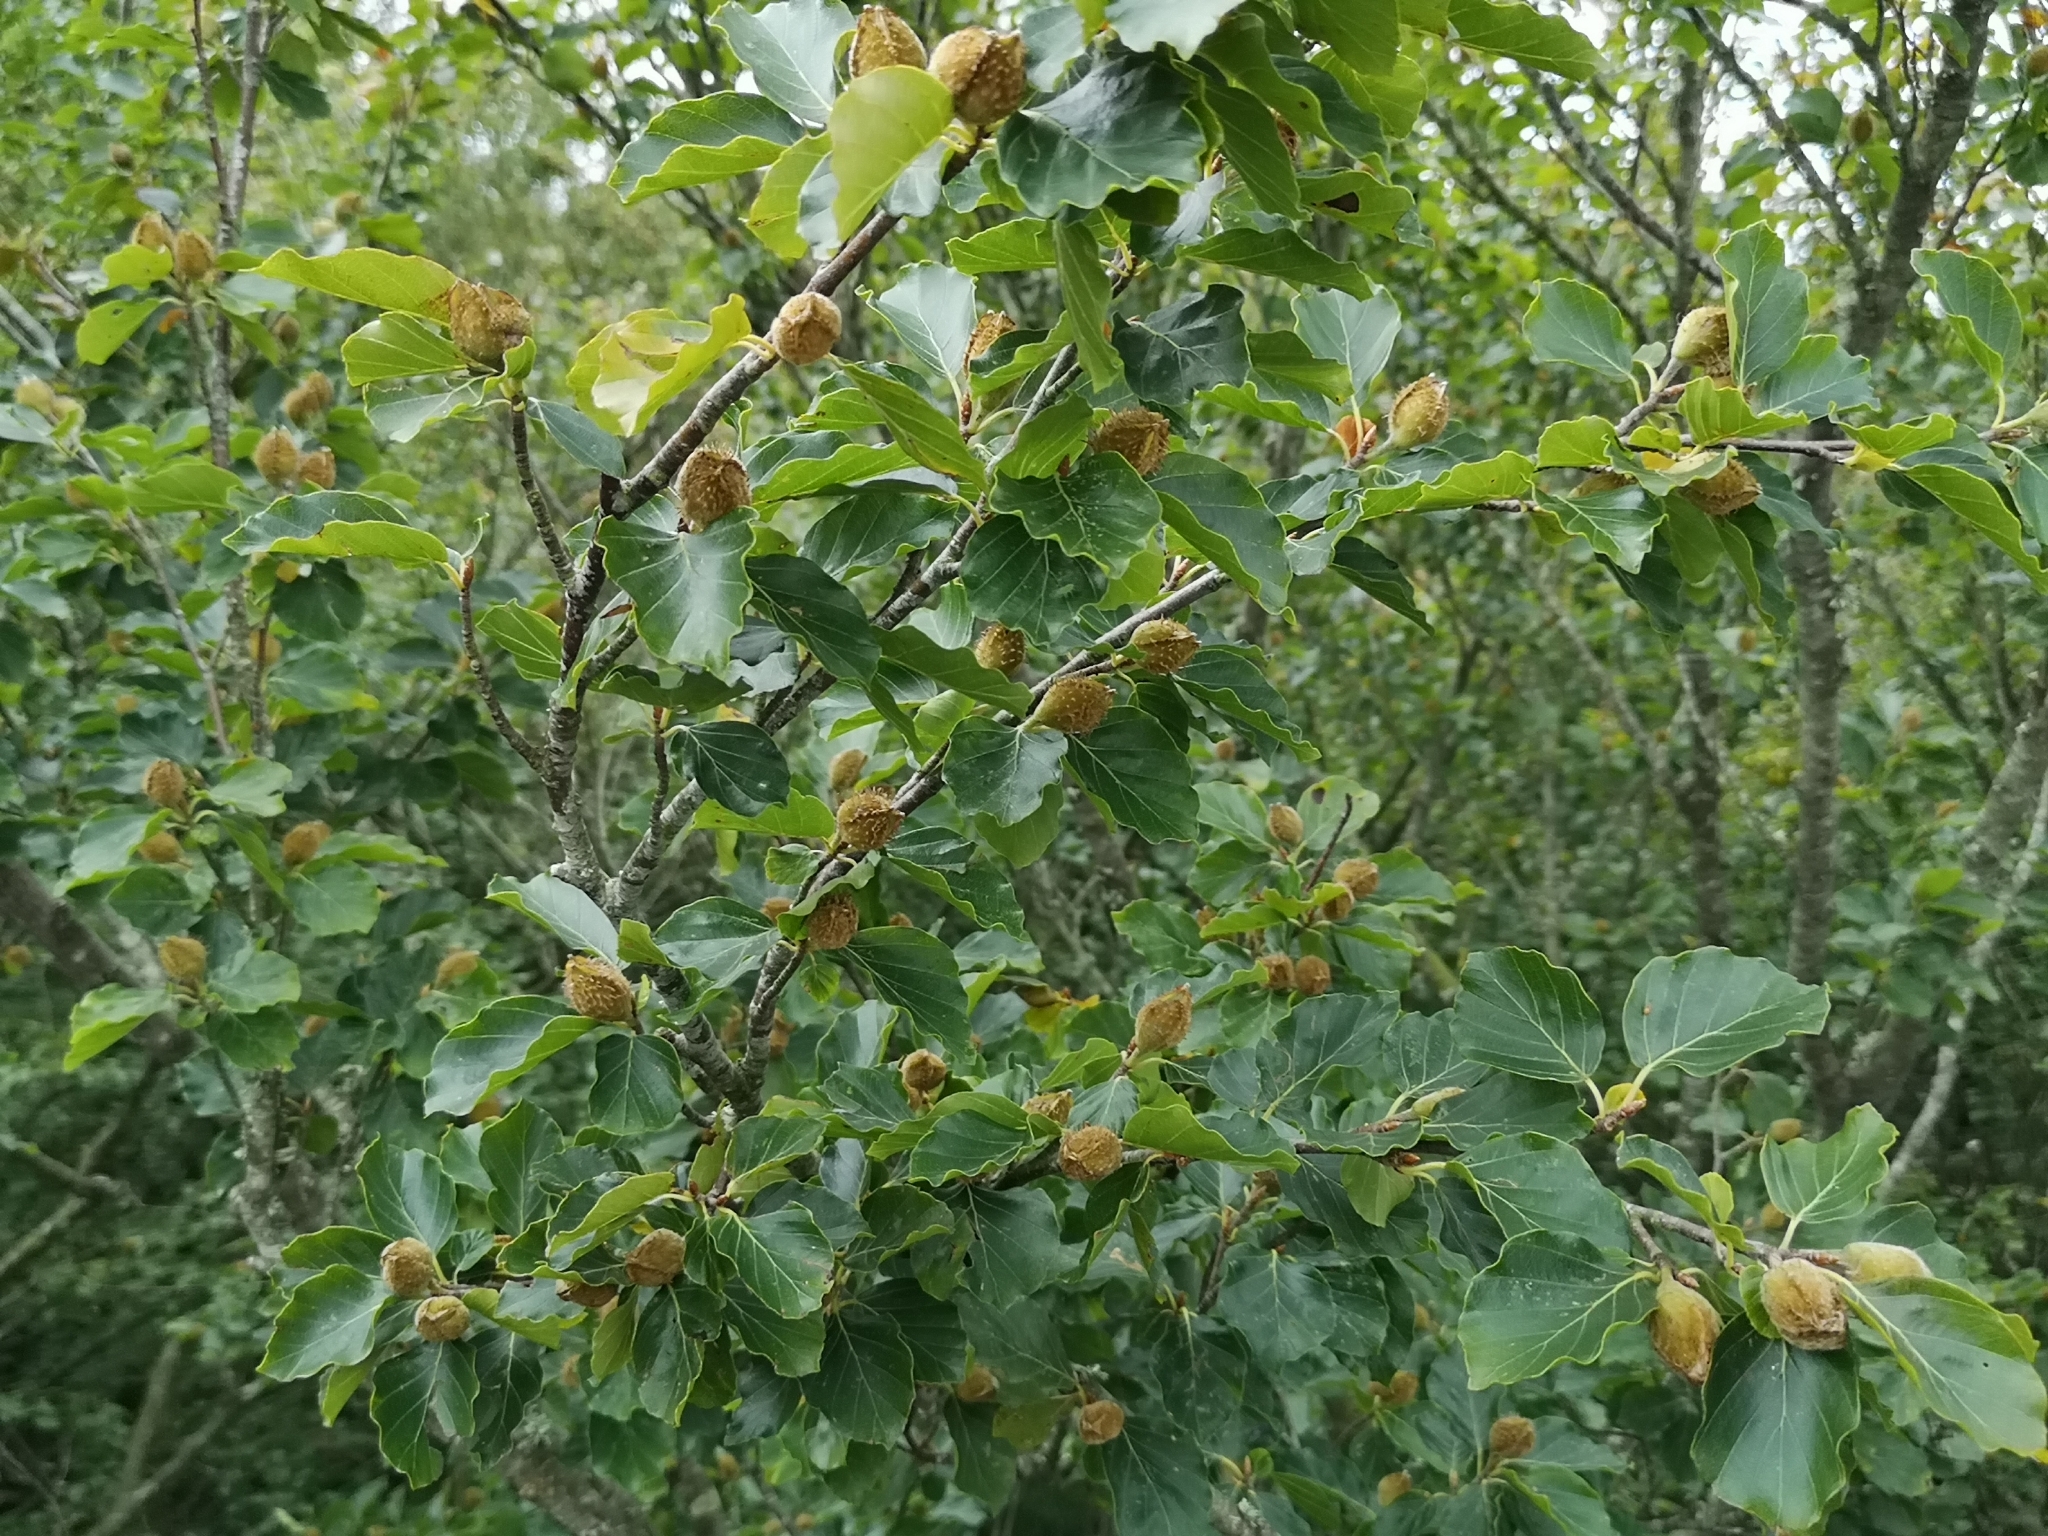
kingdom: Plantae
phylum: Tracheophyta
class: Magnoliopsida
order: Fagales
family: Fagaceae
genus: Fagus
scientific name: Fagus sylvatica
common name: Beech
